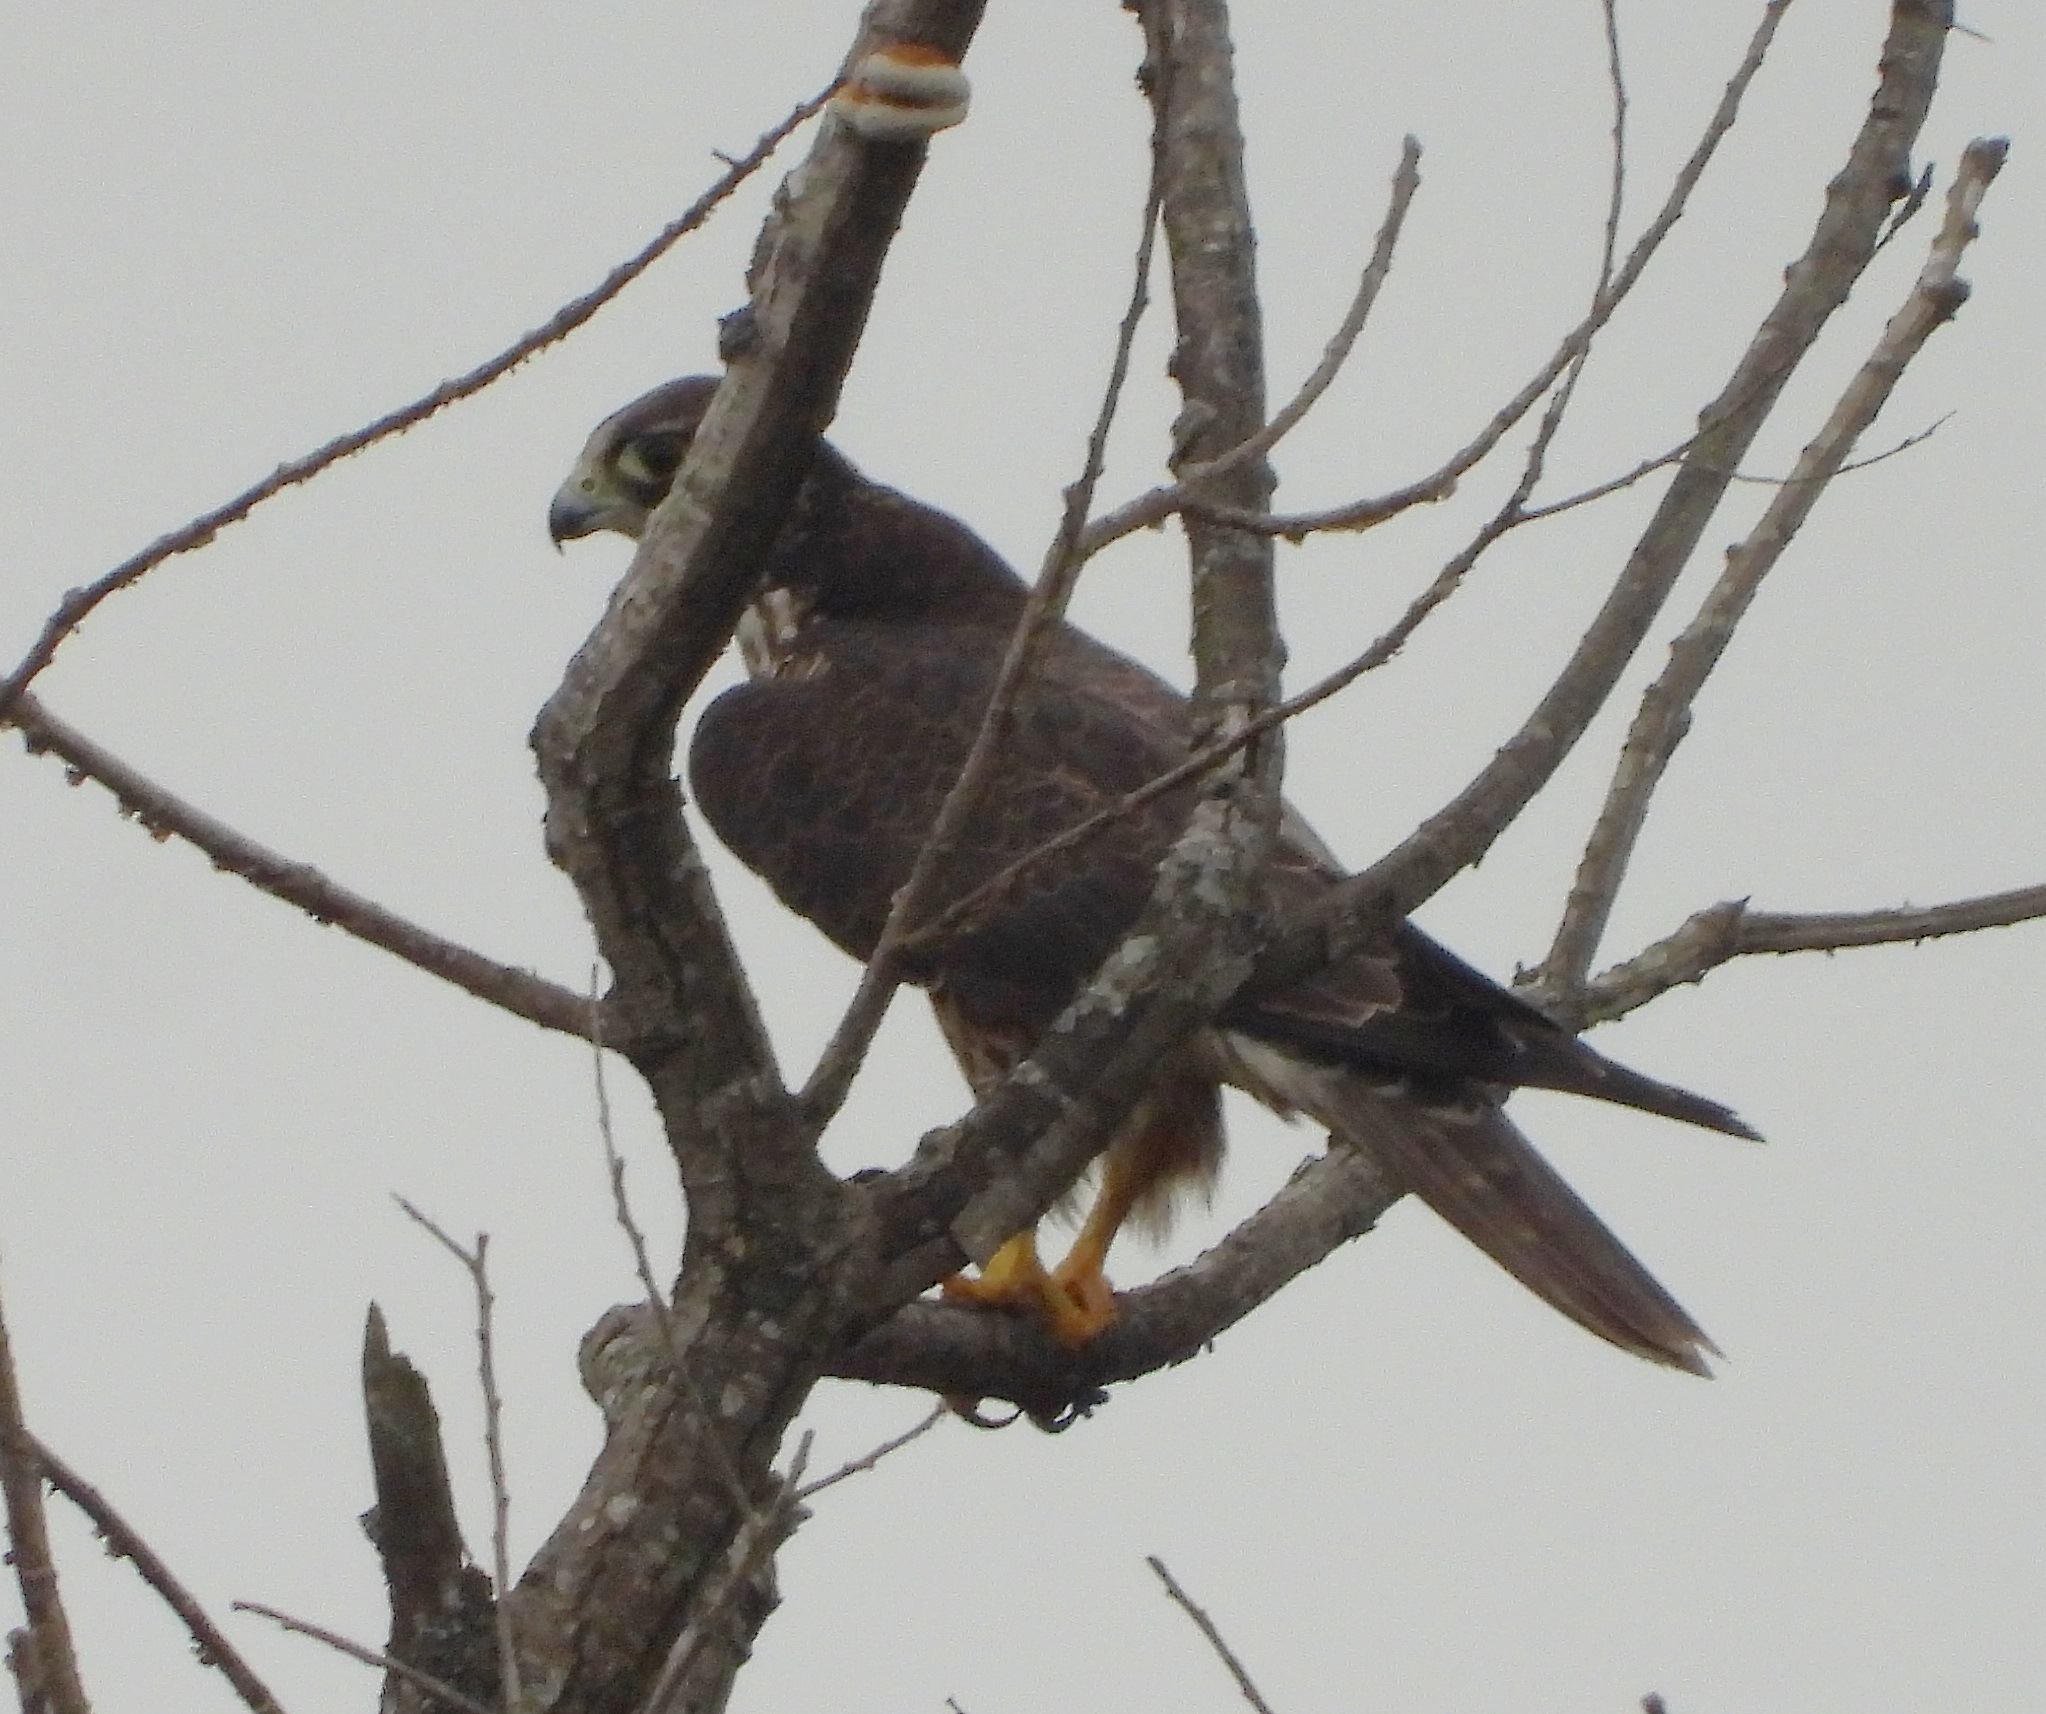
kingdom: Animalia
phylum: Chordata
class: Aves
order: Falconiformes
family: Falconidae
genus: Falco
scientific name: Falco peregrinus
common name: Peregrine falcon
